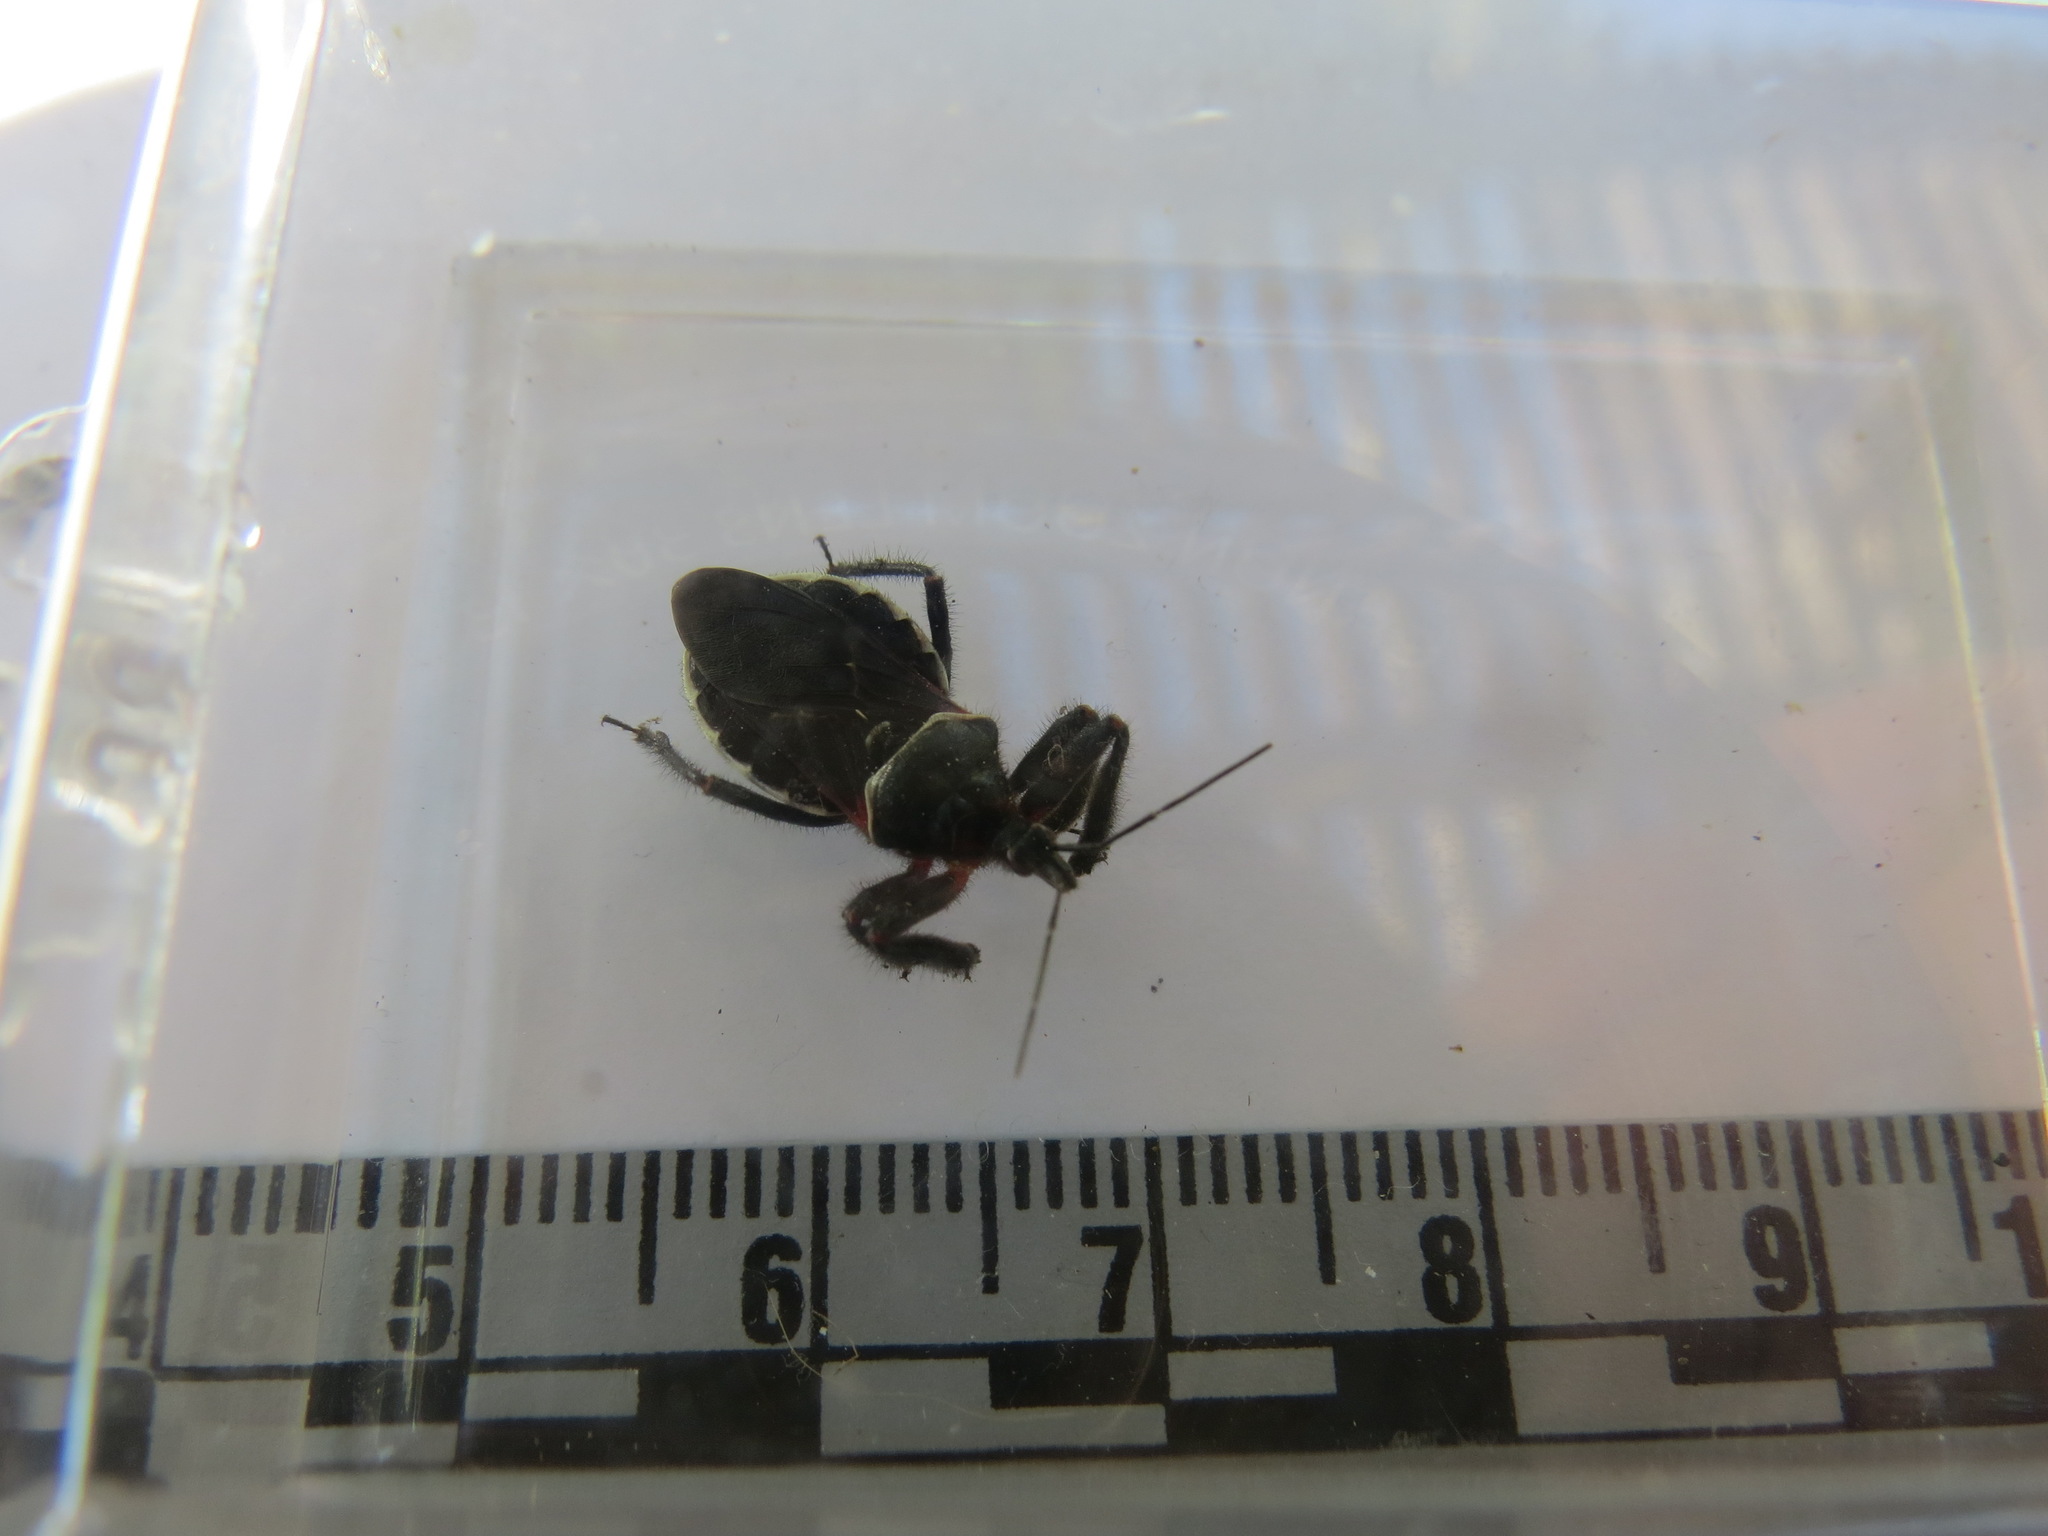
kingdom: Animalia
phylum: Arthropoda
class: Insecta
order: Hemiptera
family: Reduviidae
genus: Apiomerus
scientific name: Apiomerus californicus
